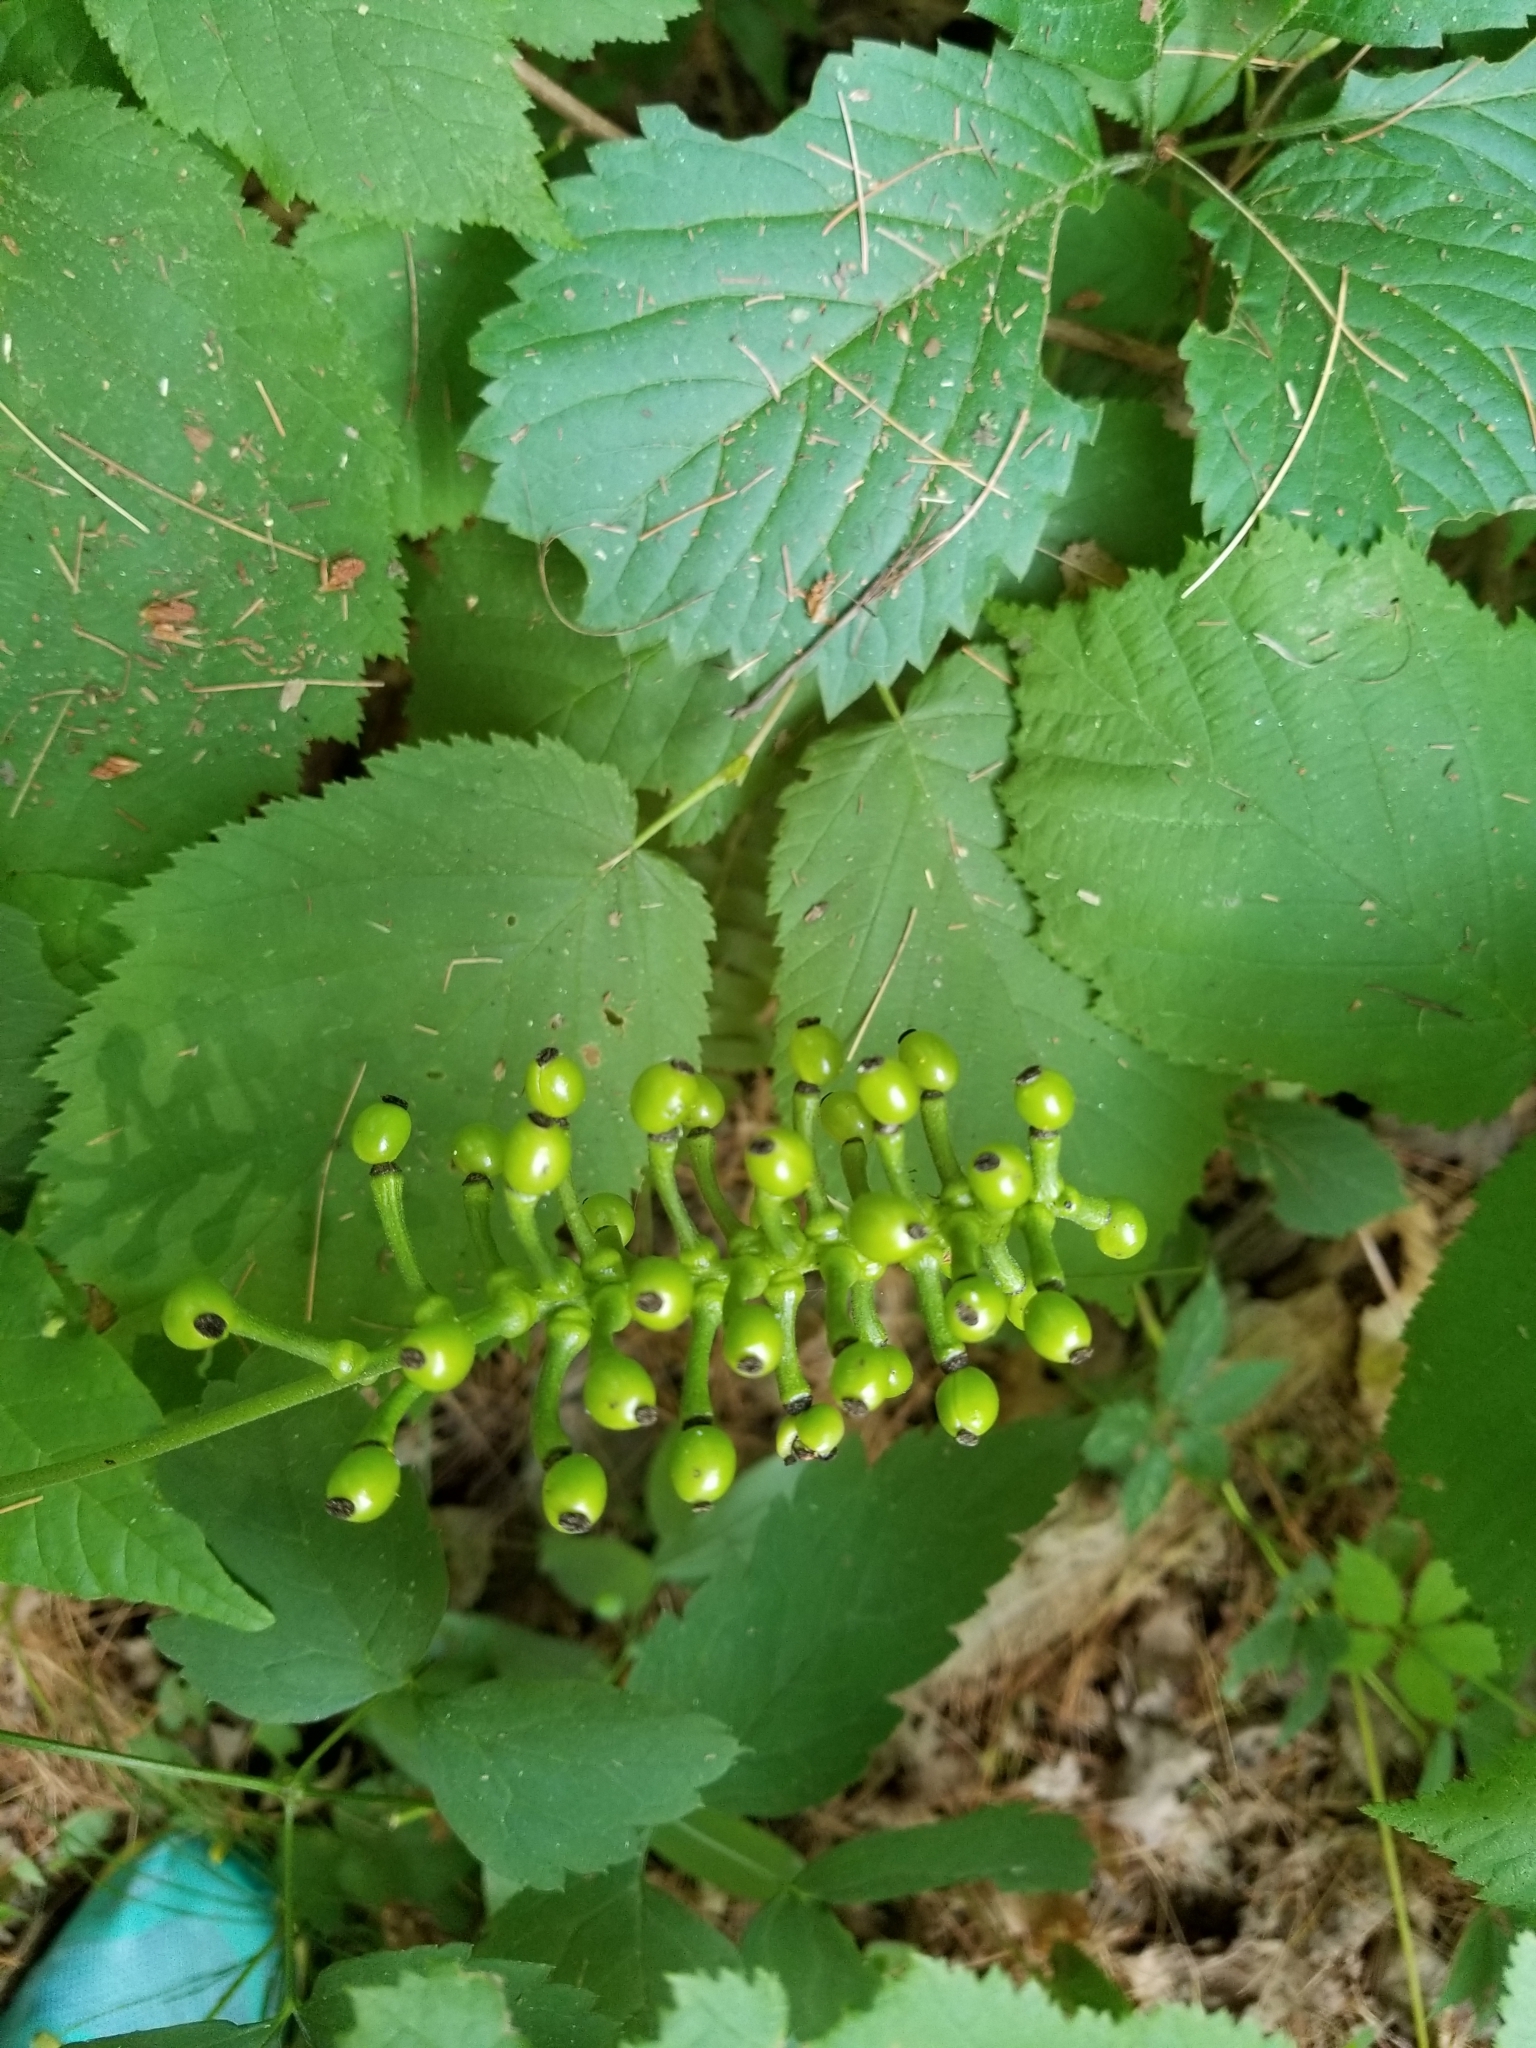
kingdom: Plantae
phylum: Tracheophyta
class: Magnoliopsida
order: Ranunculales
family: Ranunculaceae
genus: Actaea
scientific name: Actaea pachypoda
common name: Doll's-eyes
